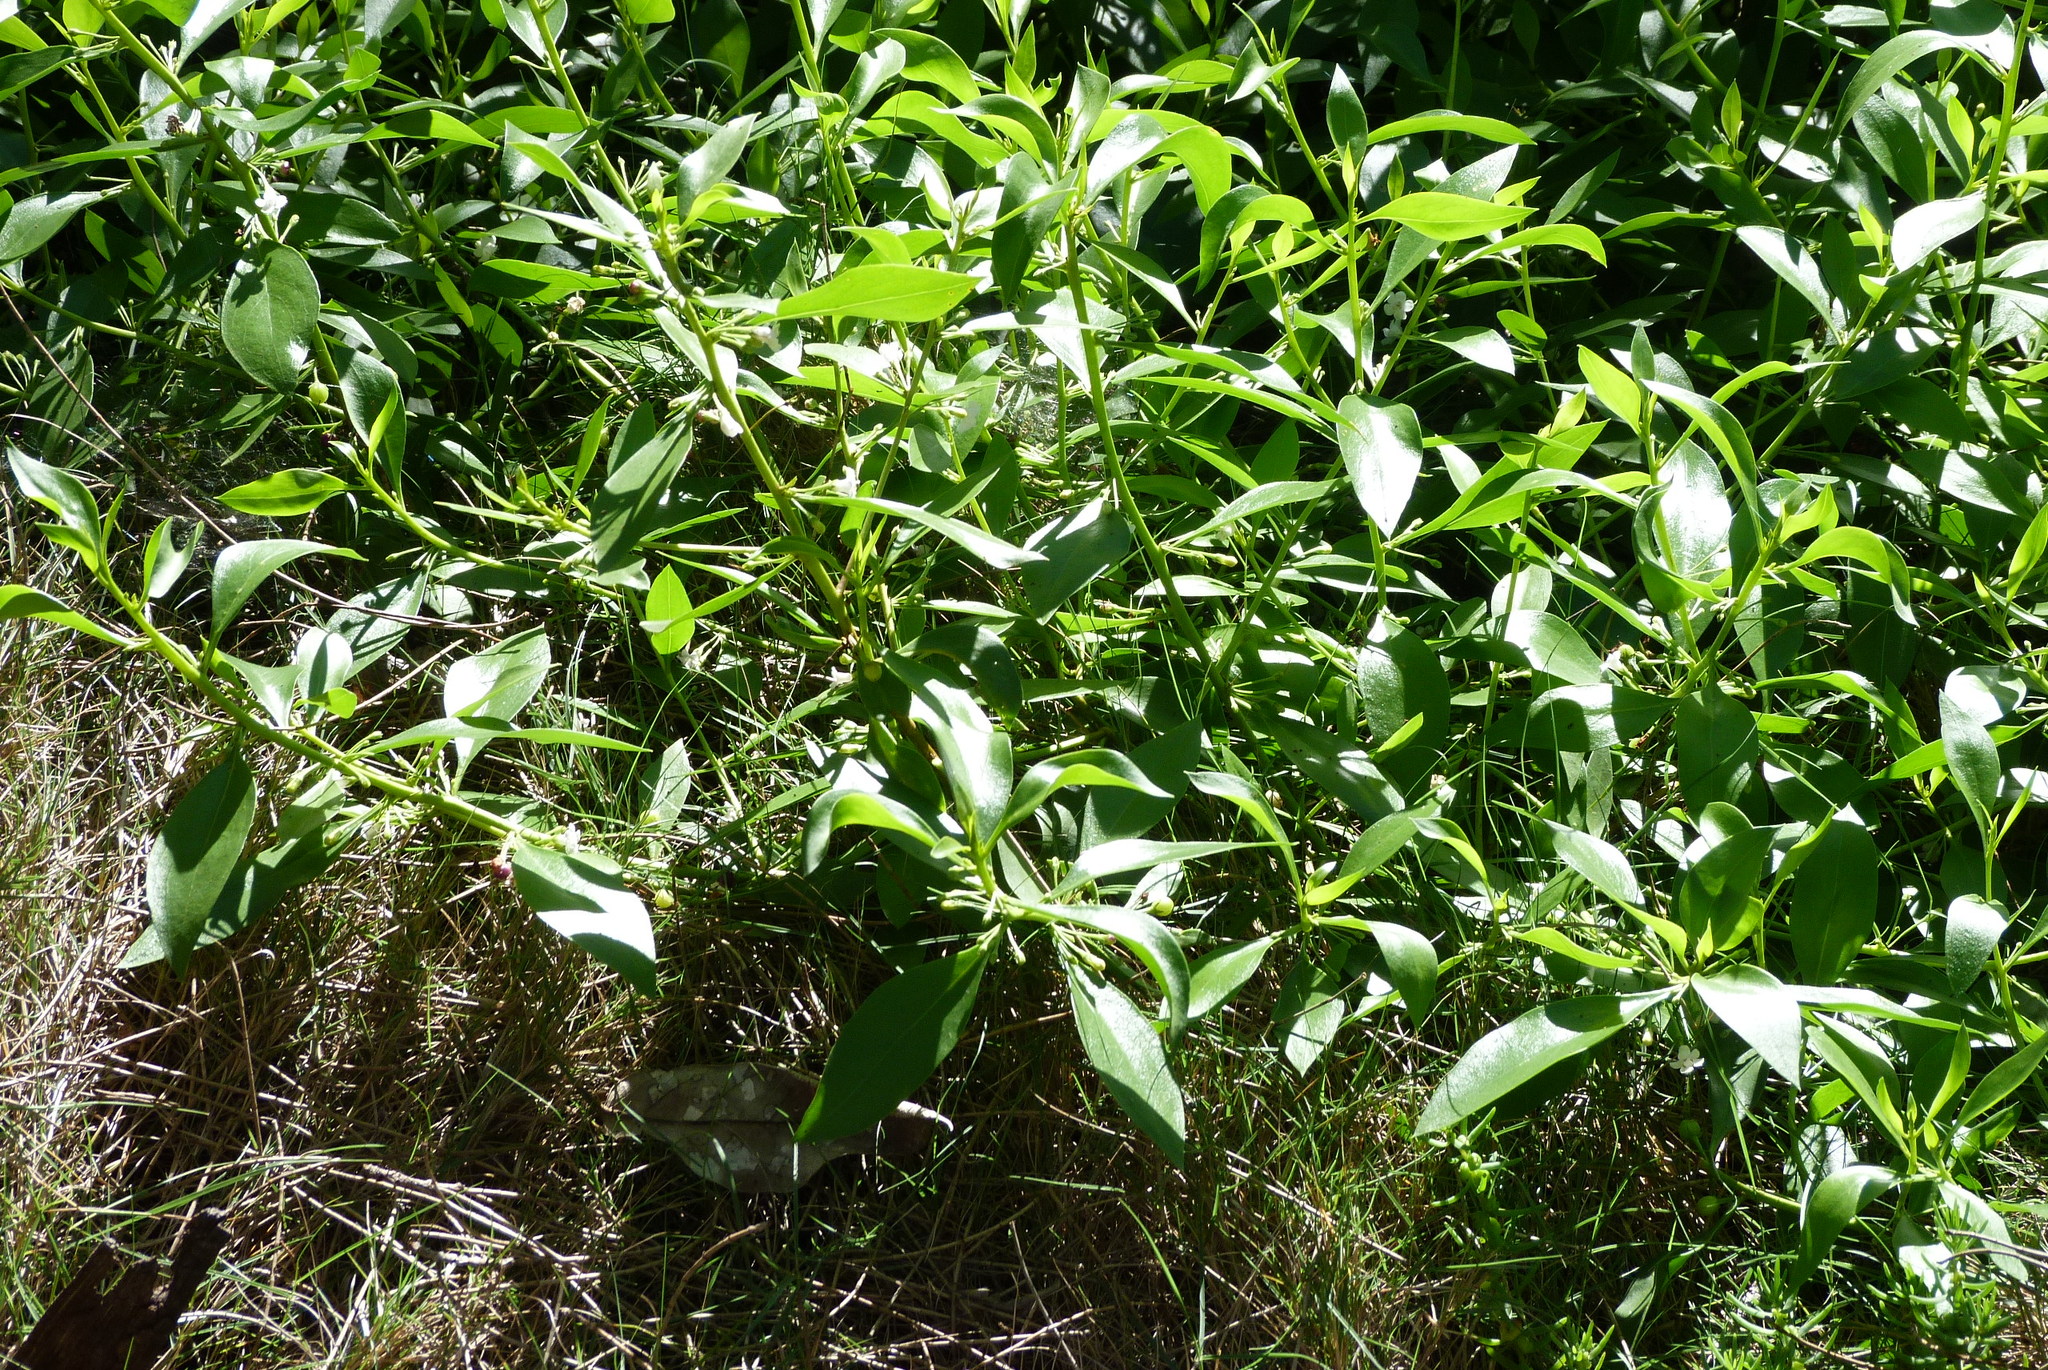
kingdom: Plantae
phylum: Tracheophyta
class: Magnoliopsida
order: Lamiales
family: Scrophulariaceae
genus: Myoporum
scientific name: Myoporum acuminatum
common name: Pointed boobialla
